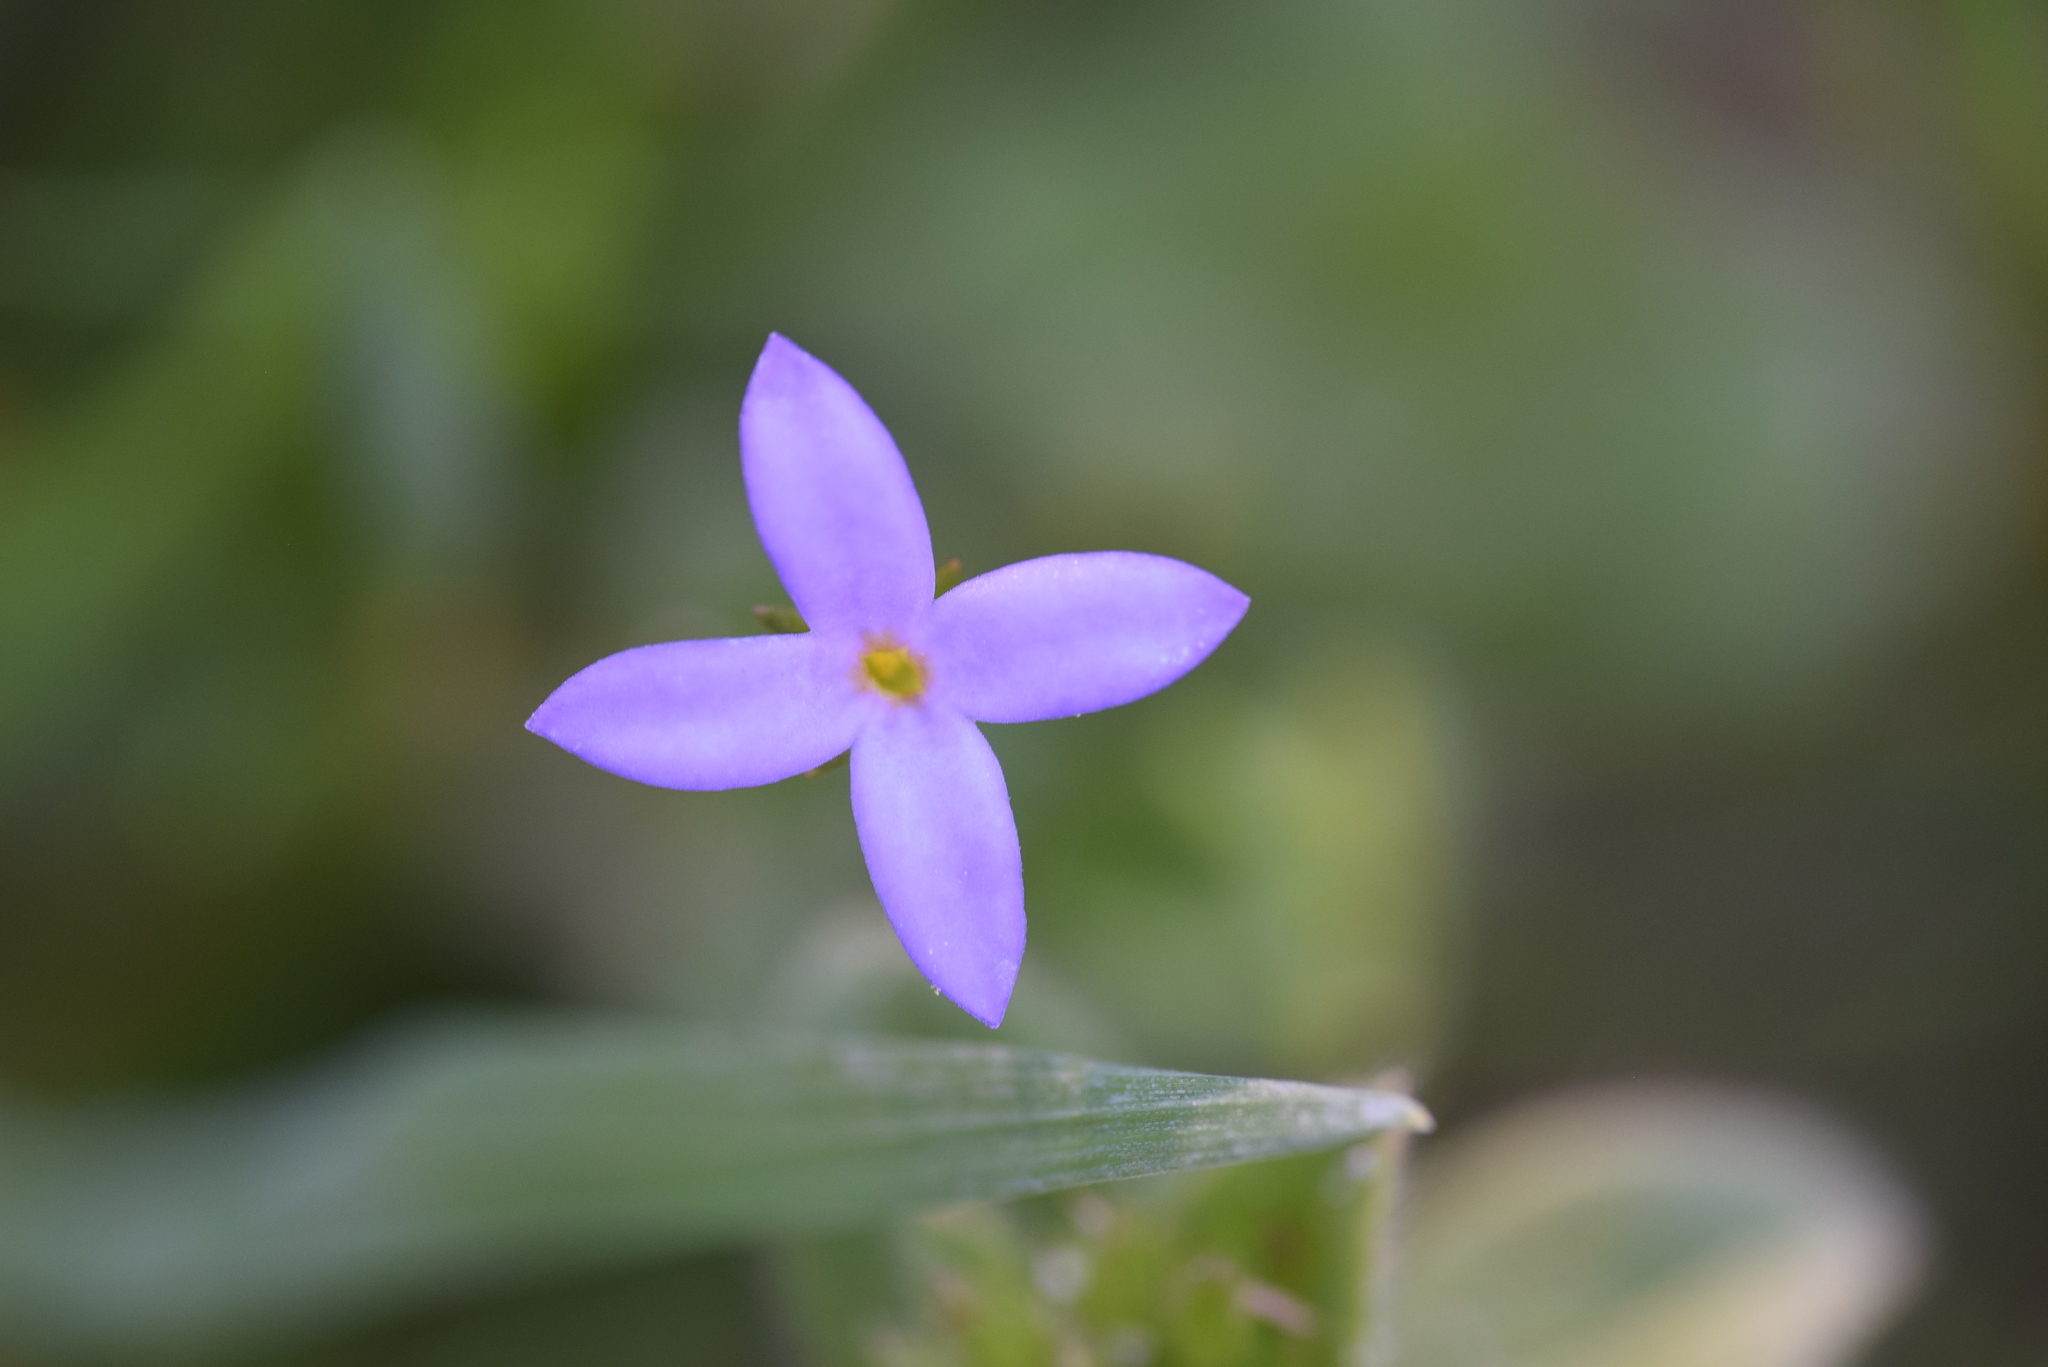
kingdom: Plantae
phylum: Tracheophyta
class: Magnoliopsida
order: Gentianales
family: Rubiaceae
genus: Houstonia
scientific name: Houstonia pusilla
